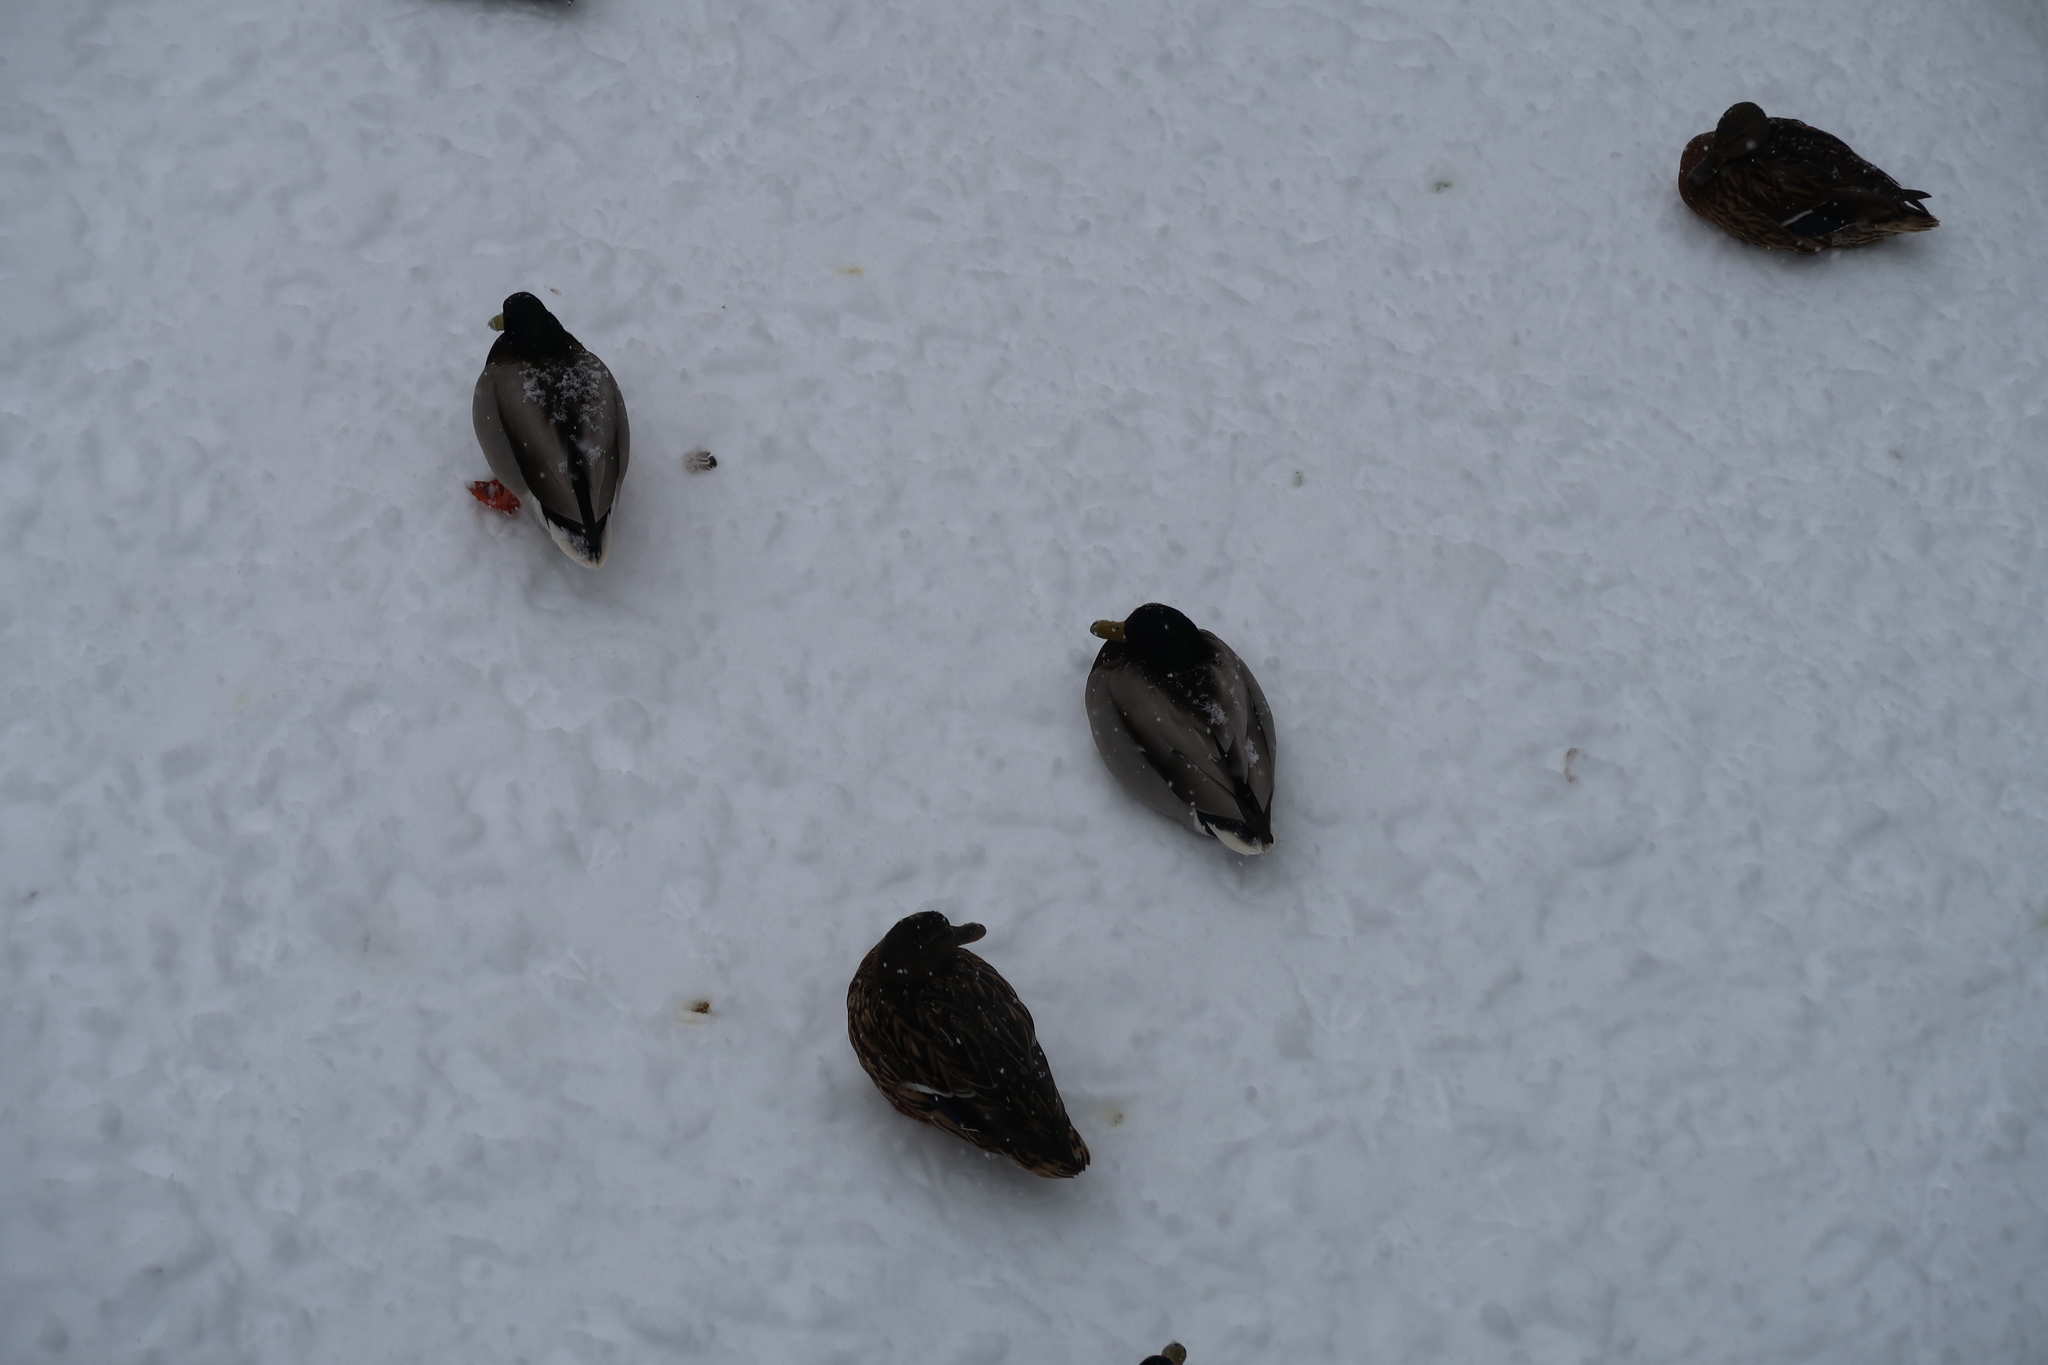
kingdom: Animalia
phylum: Chordata
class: Aves
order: Anseriformes
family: Anatidae
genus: Anas
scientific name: Anas platyrhynchos
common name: Mallard
